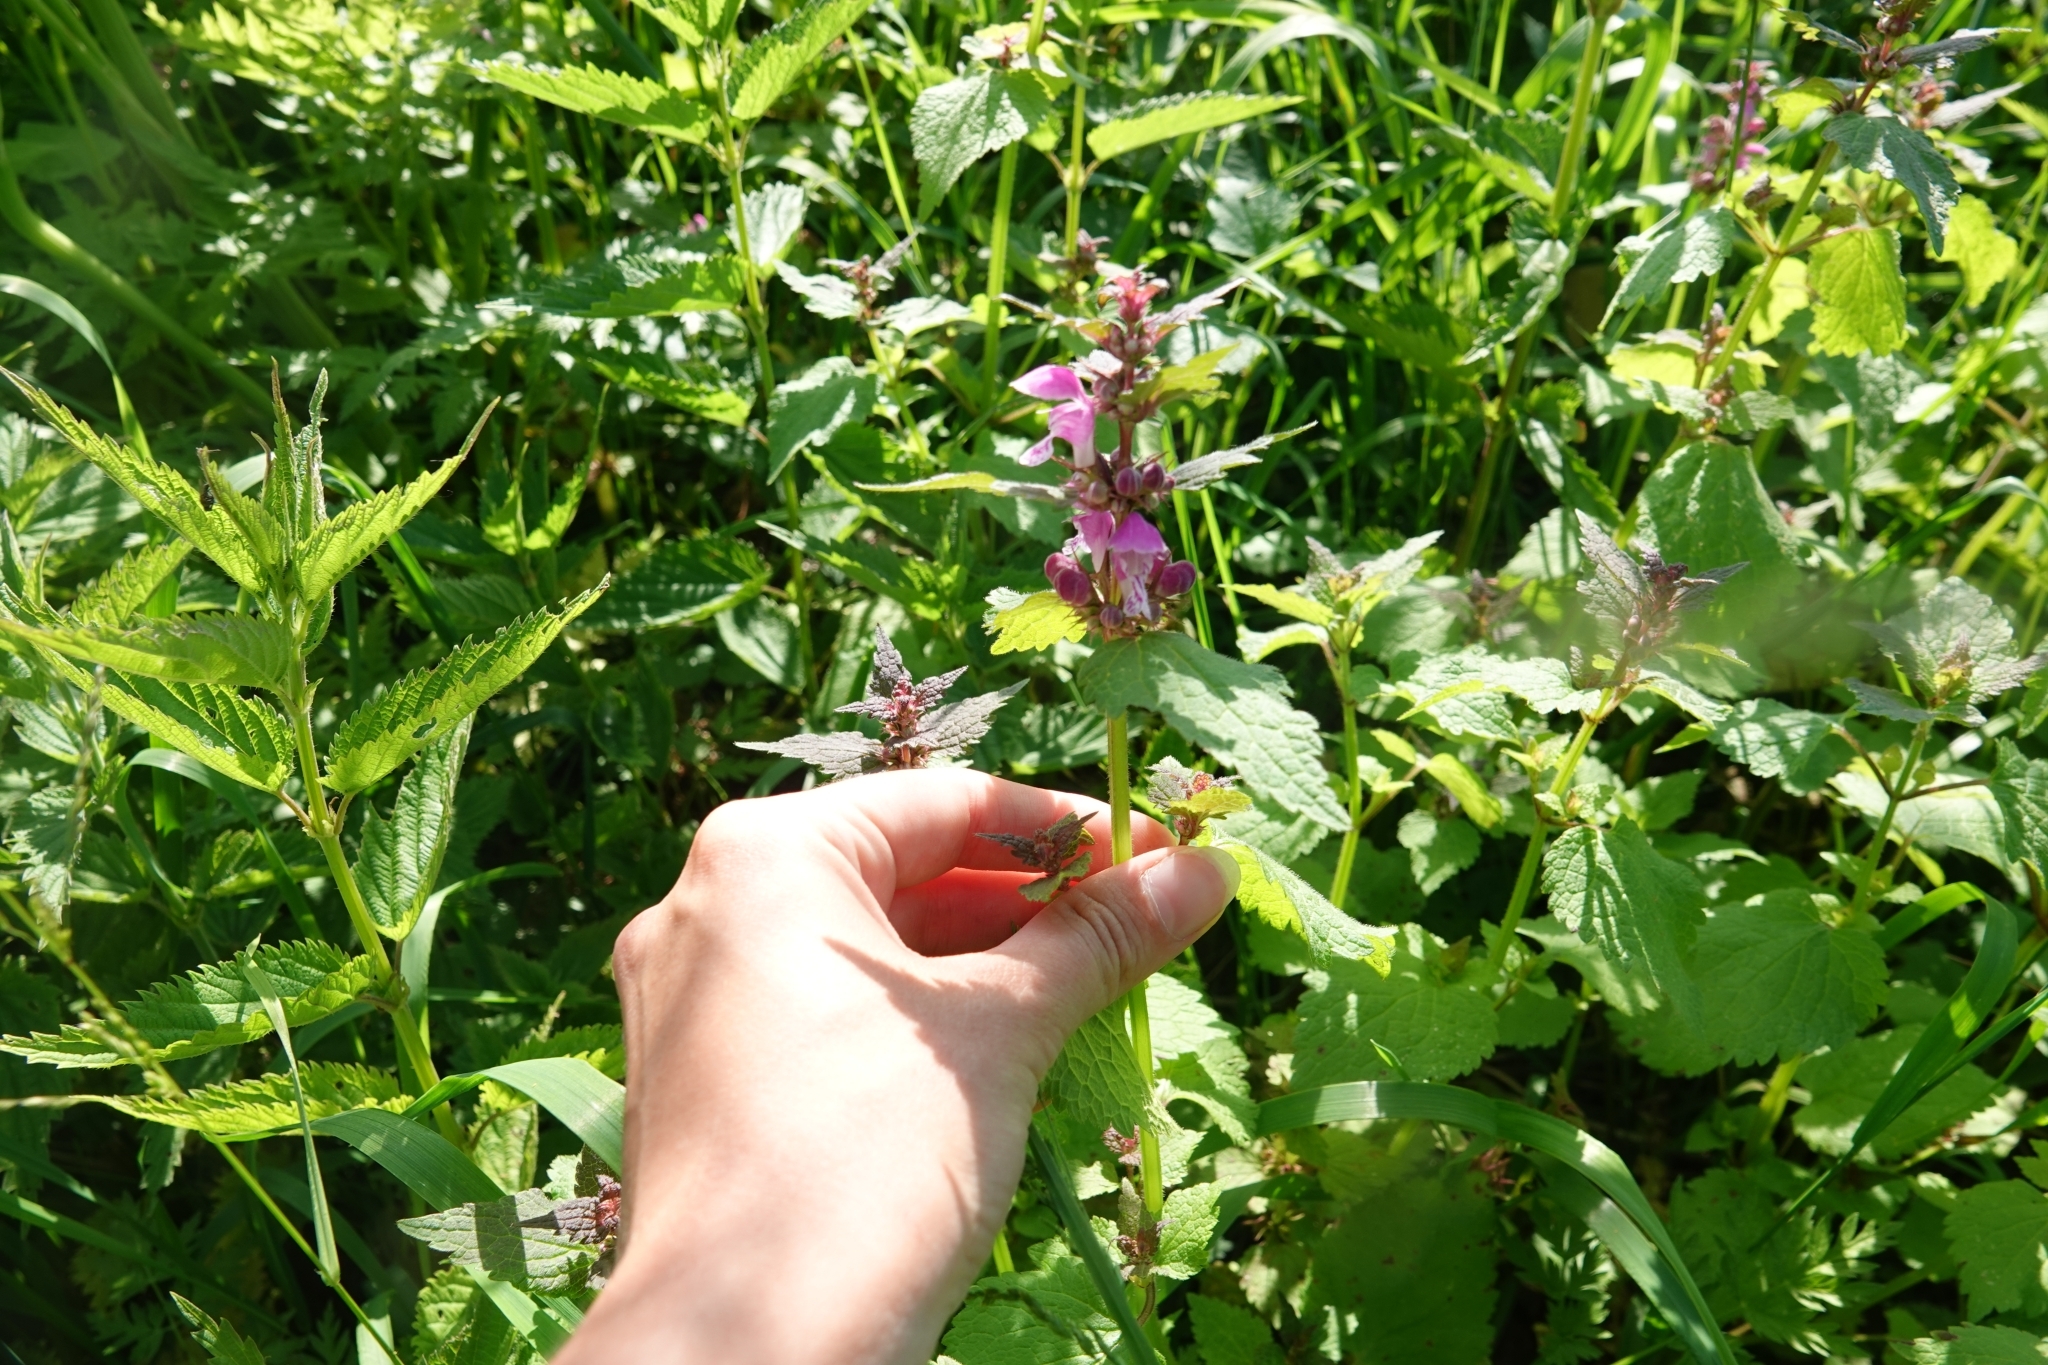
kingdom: Plantae
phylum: Tracheophyta
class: Magnoliopsida
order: Lamiales
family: Lamiaceae
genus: Lamium
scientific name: Lamium maculatum
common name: Spotted dead-nettle
